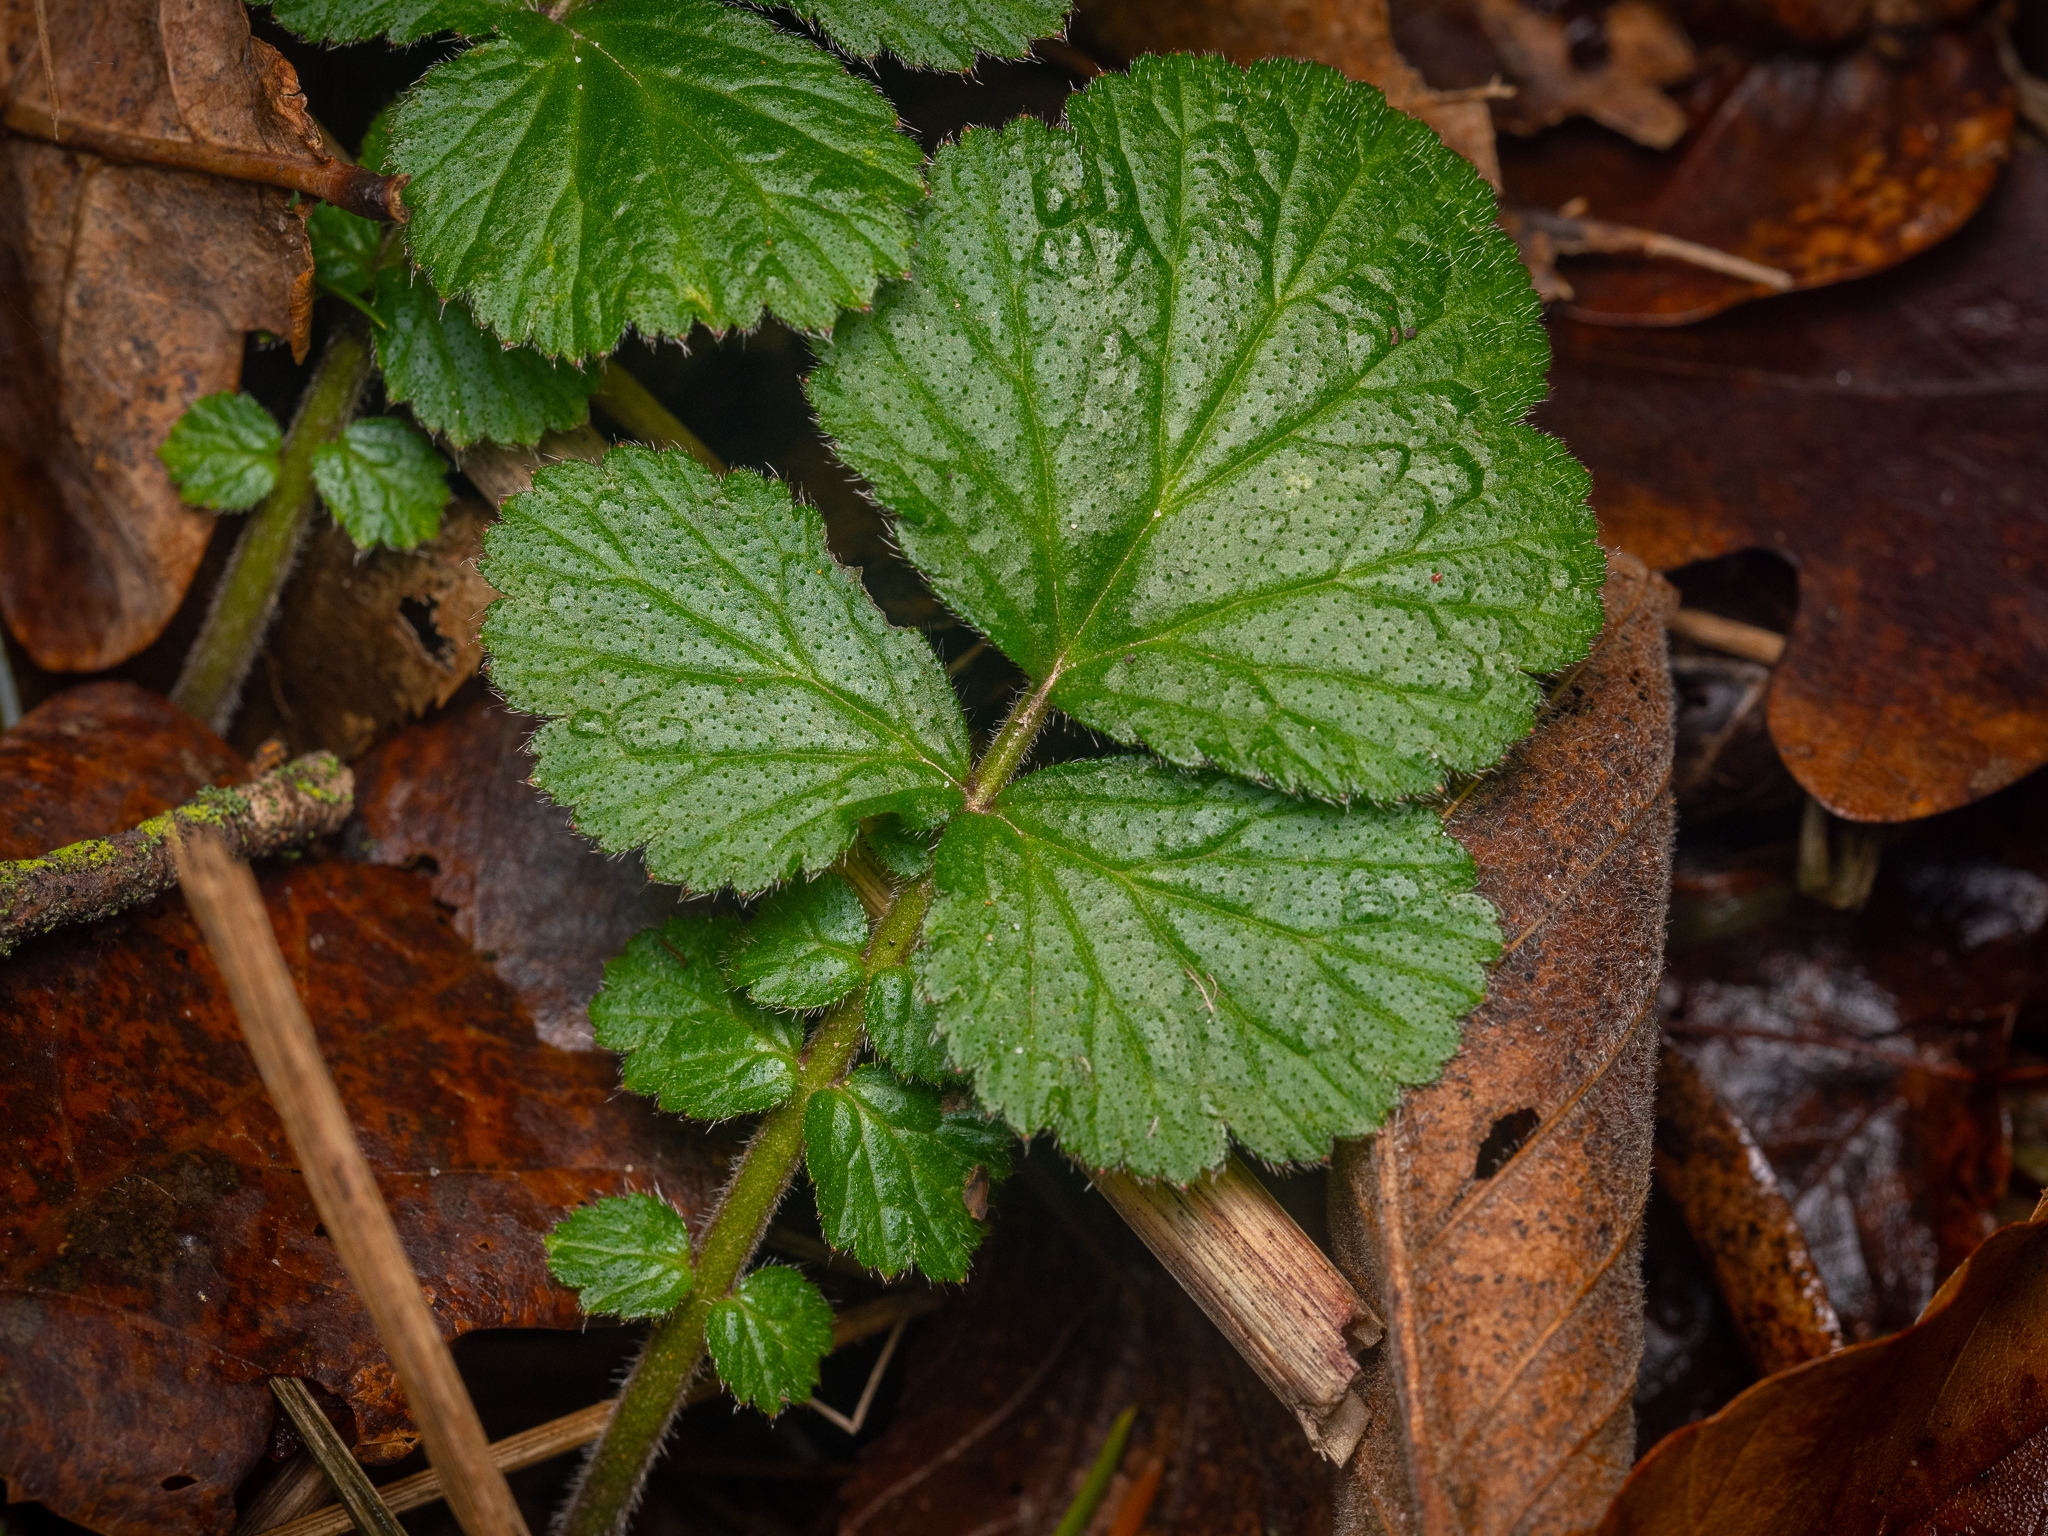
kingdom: Plantae
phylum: Tracheophyta
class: Magnoliopsida
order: Rosales
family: Rosaceae
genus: Geum
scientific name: Geum urbanum
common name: Wood avens
